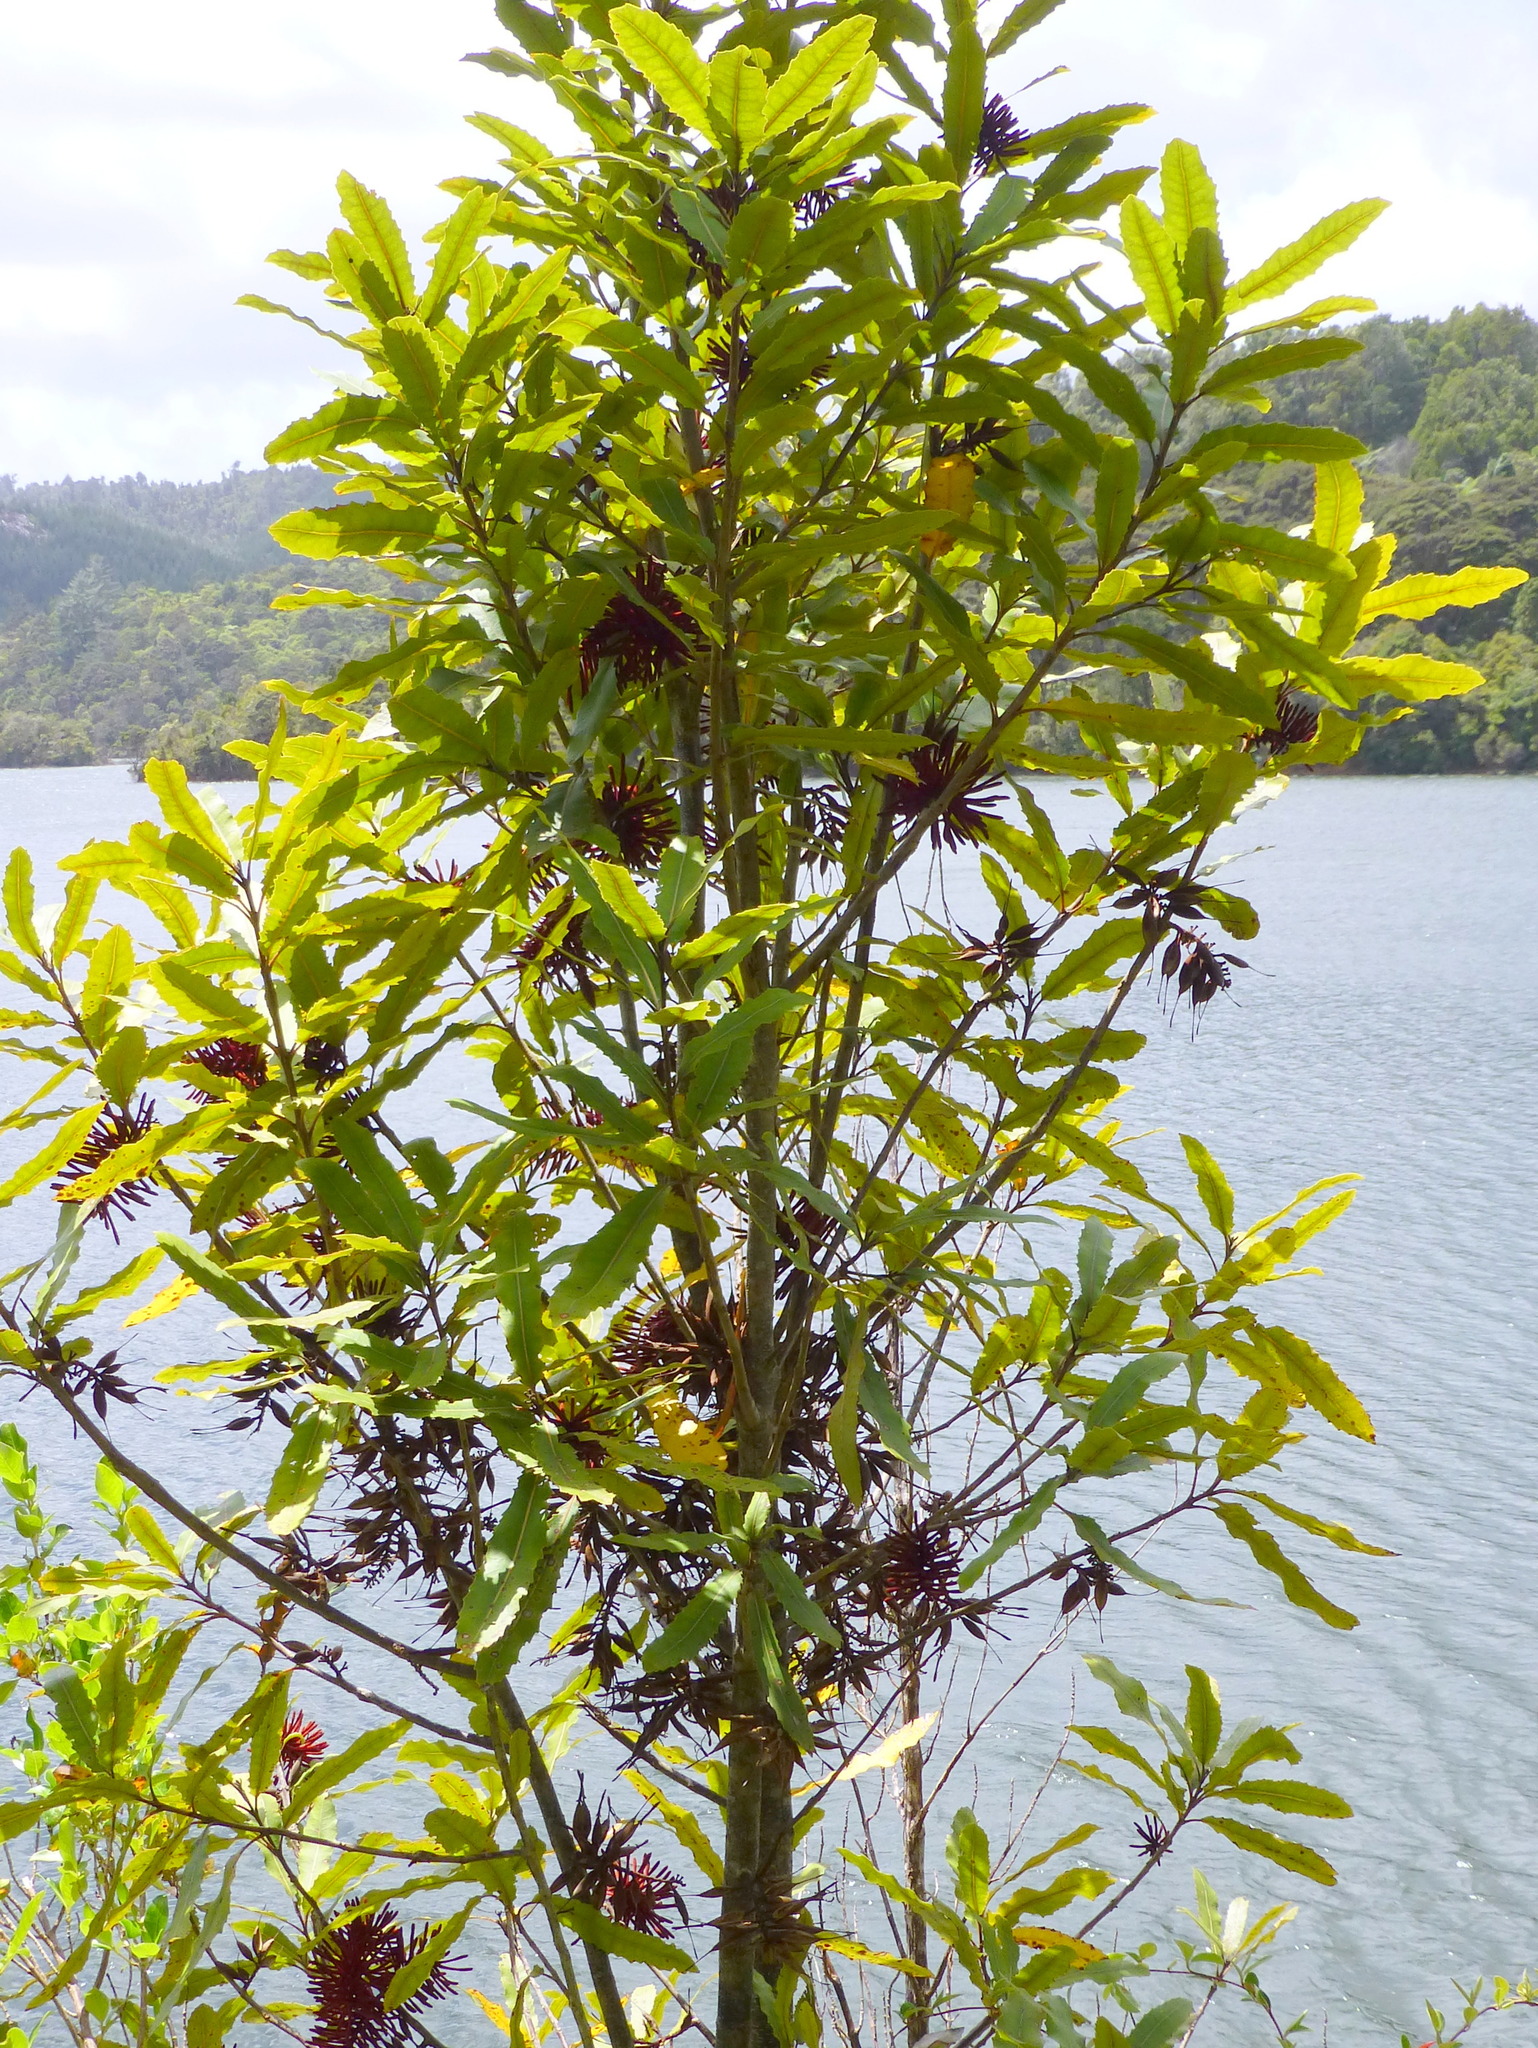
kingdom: Plantae
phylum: Tracheophyta
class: Magnoliopsida
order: Proteales
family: Proteaceae
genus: Knightia
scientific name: Knightia excelsa
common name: New zealand-honeysuckle
